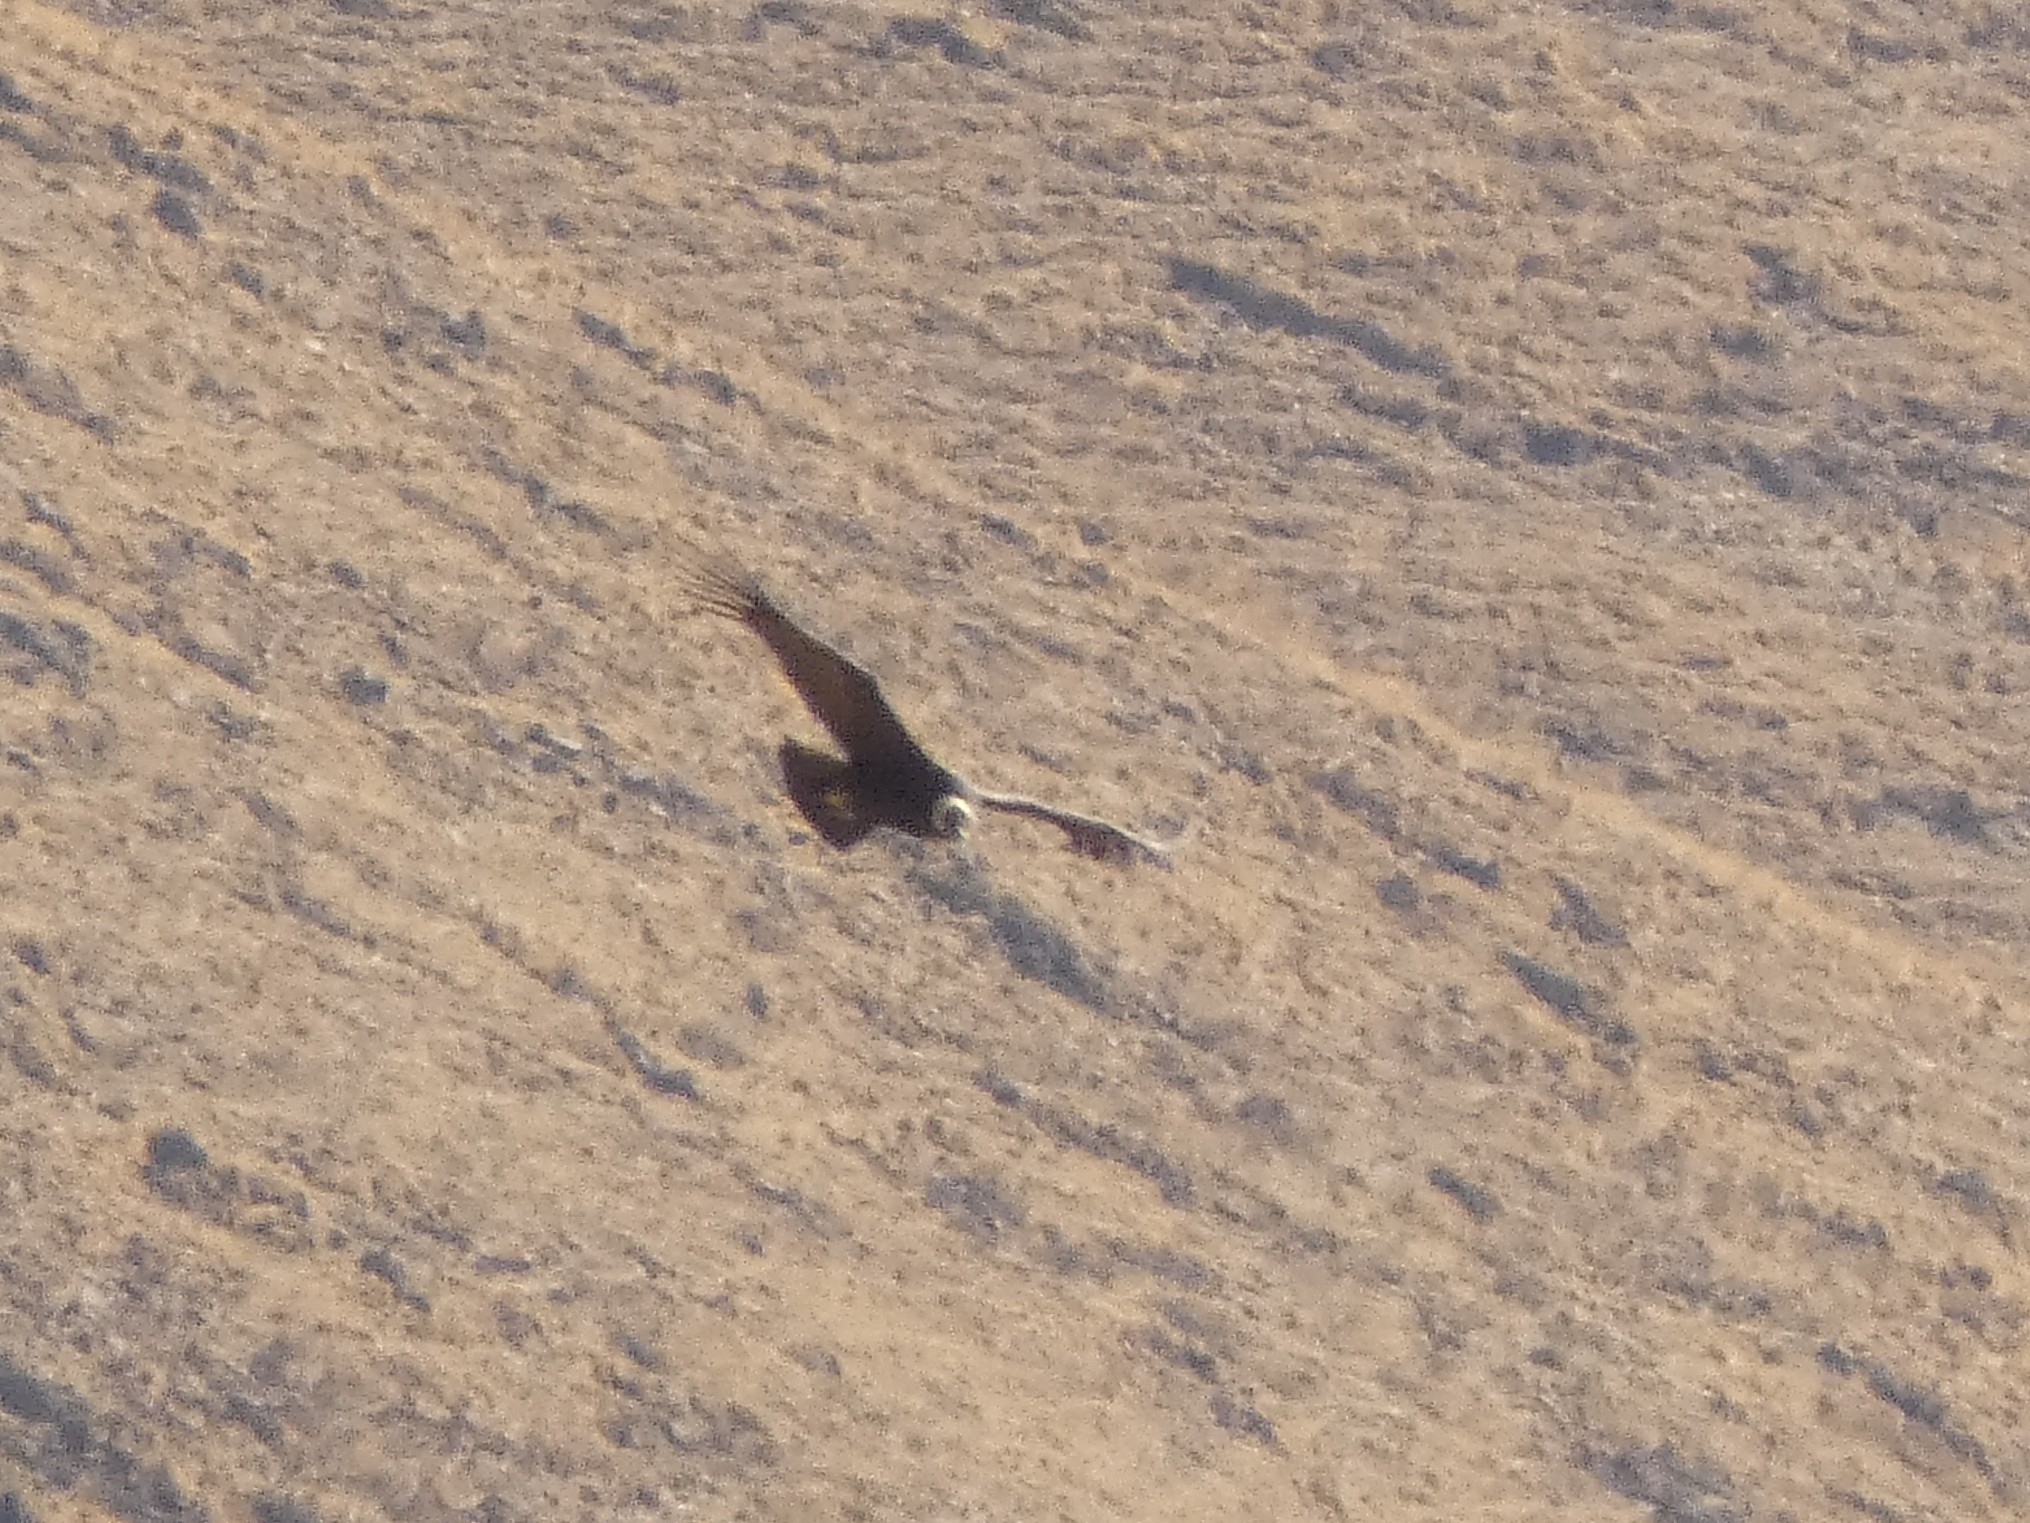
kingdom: Animalia
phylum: Chordata
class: Aves
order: Accipitriformes
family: Cathartidae
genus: Vultur
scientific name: Vultur gryphus
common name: Andean condor
